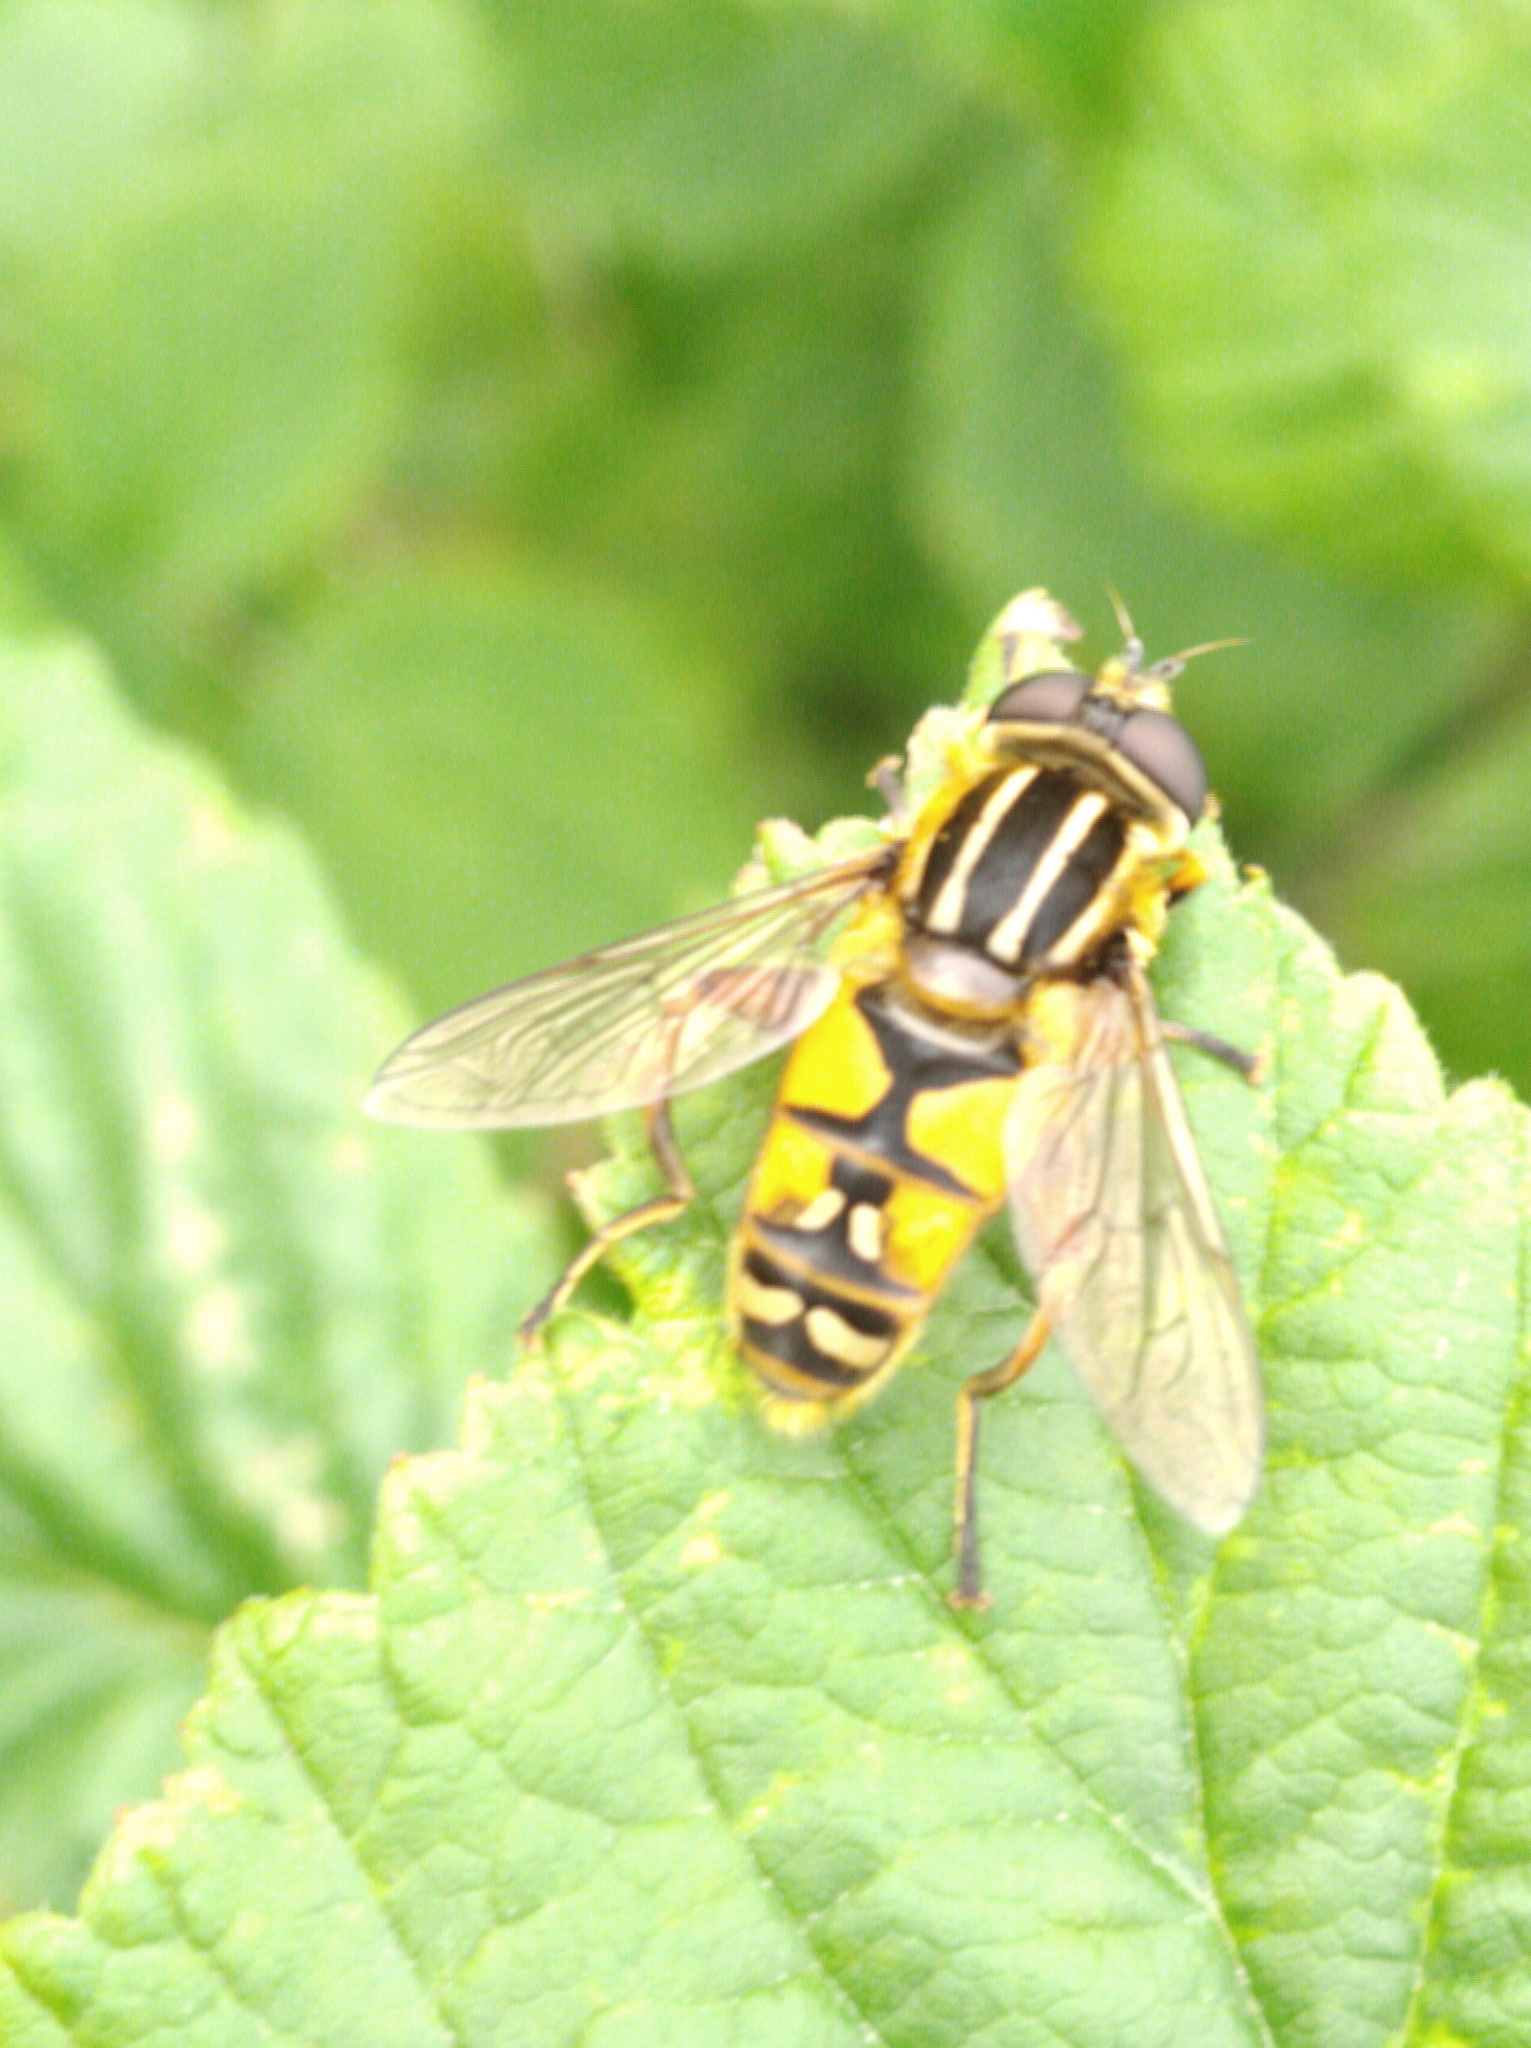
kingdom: Animalia
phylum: Arthropoda
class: Insecta
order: Diptera
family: Syrphidae
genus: Helophilus
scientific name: Helophilus pendulus
